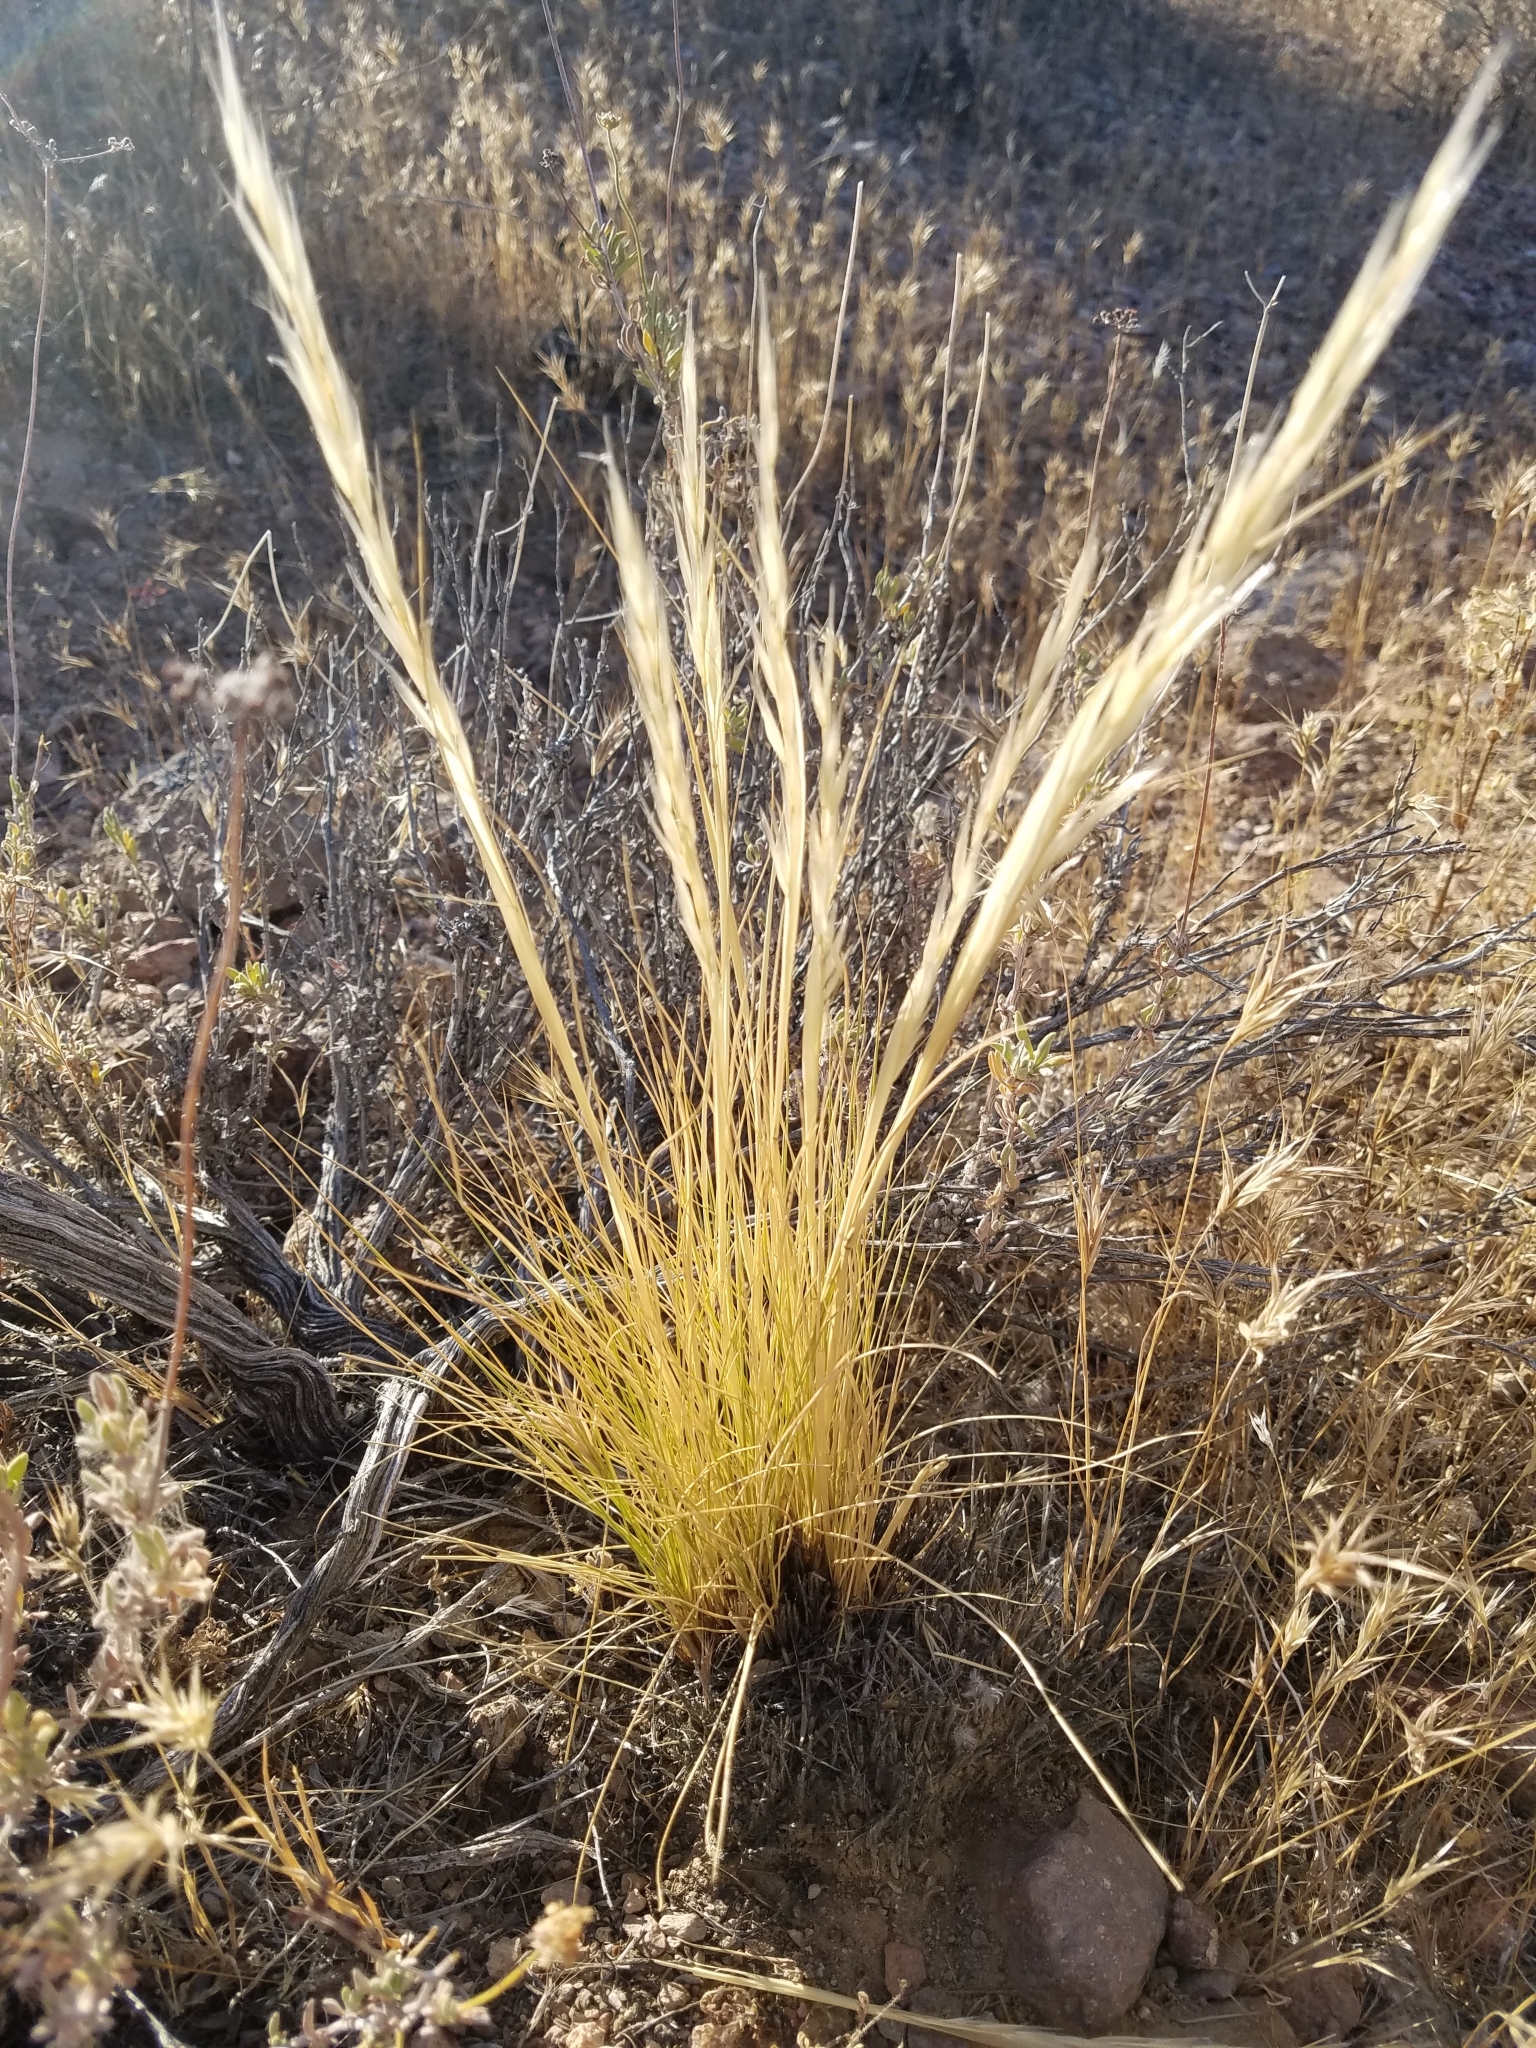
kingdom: Plantae
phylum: Tracheophyta
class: Liliopsida
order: Poales
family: Poaceae
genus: Pappostipa
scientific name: Pappostipa speciosa
